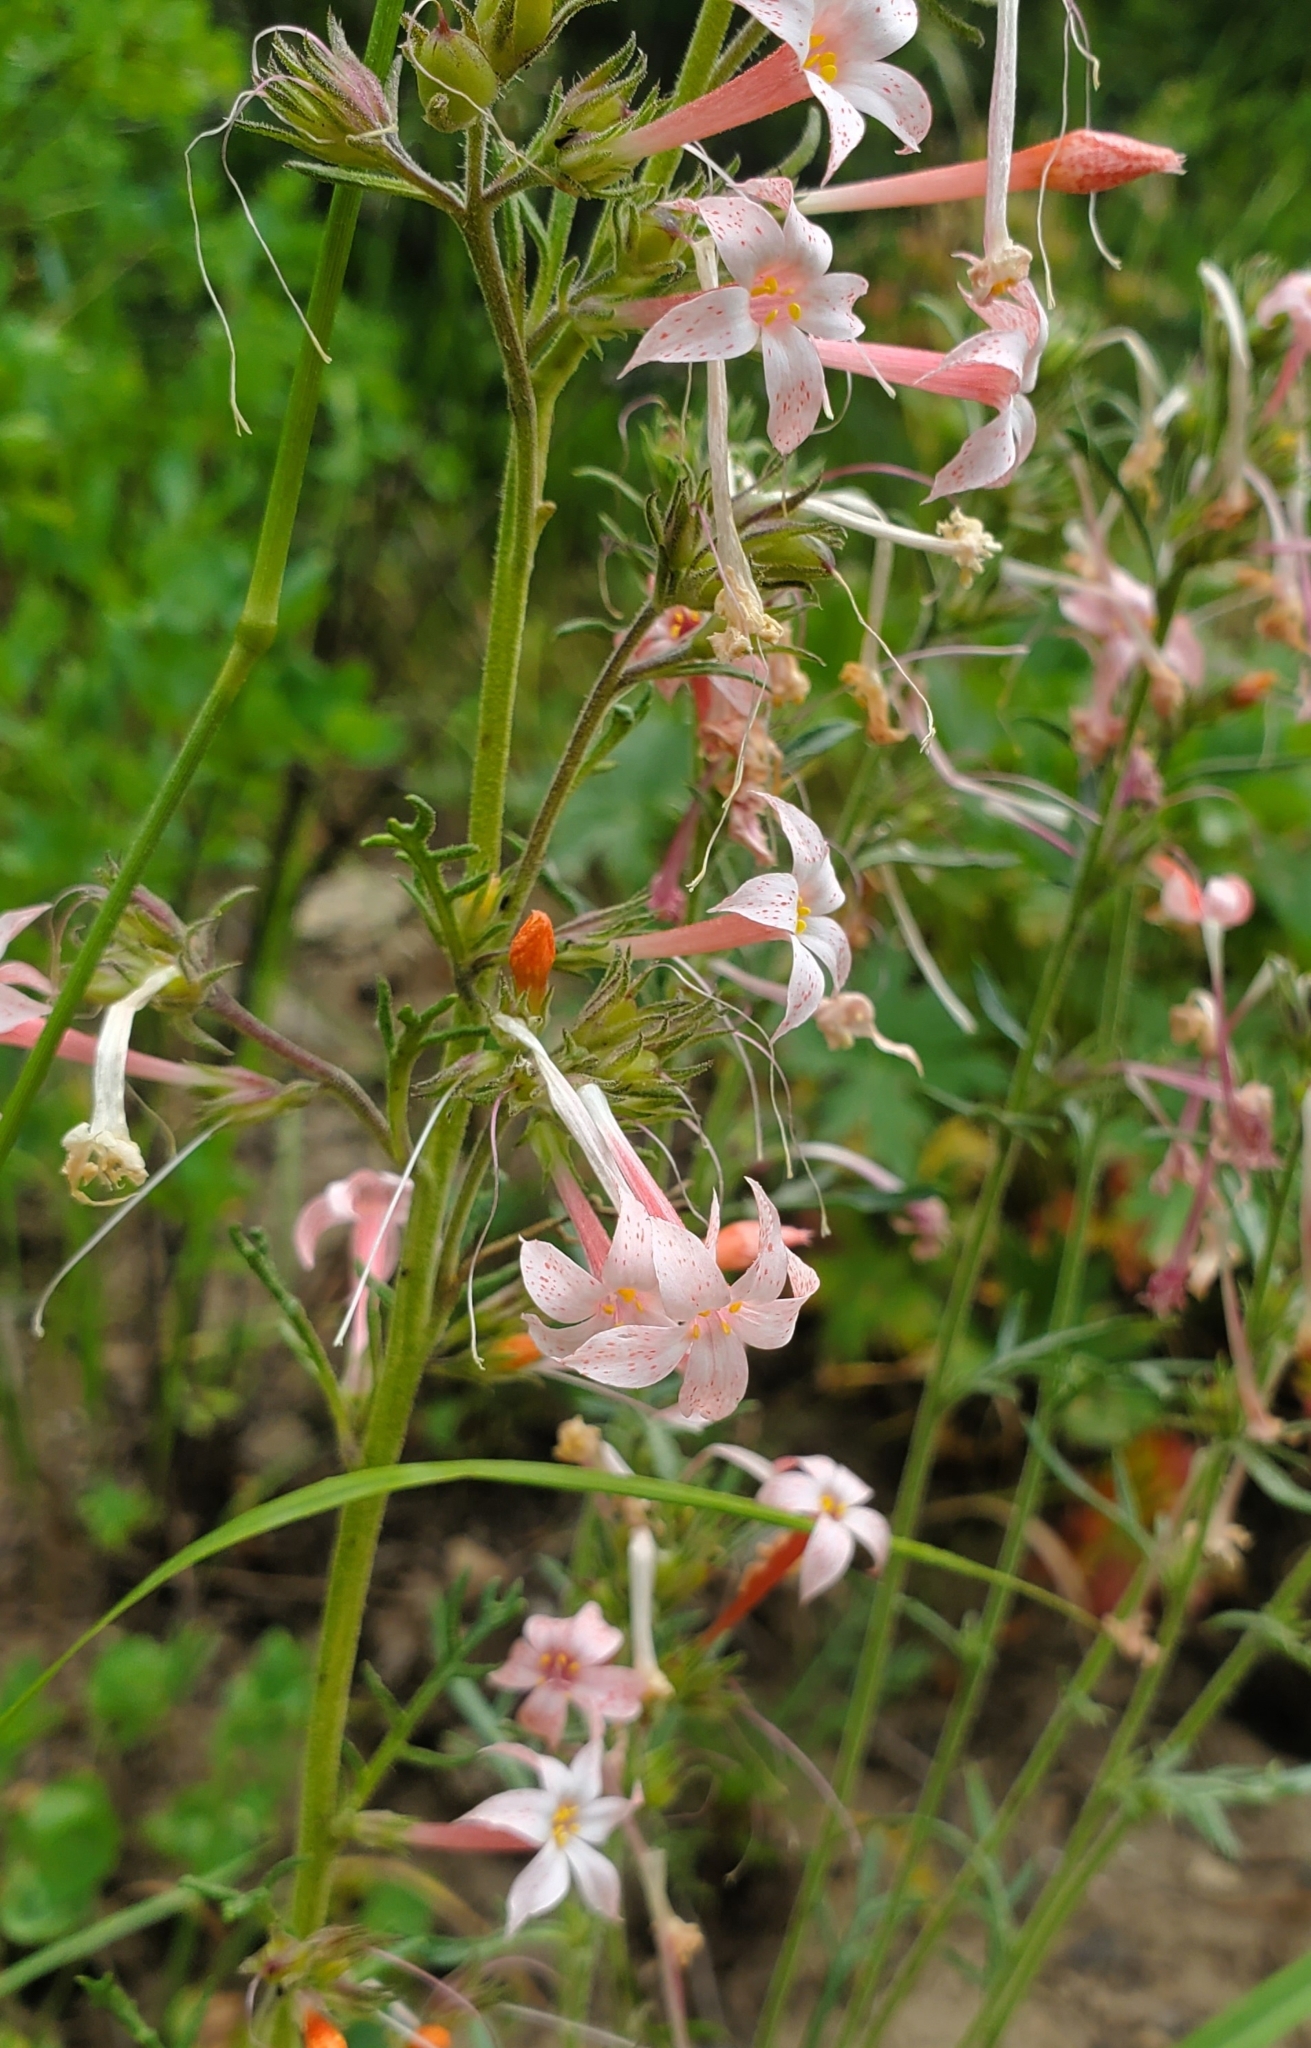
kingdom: Plantae
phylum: Tracheophyta
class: Magnoliopsida
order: Ericales
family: Polemoniaceae
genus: Ipomopsis
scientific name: Ipomopsis tenuituba
